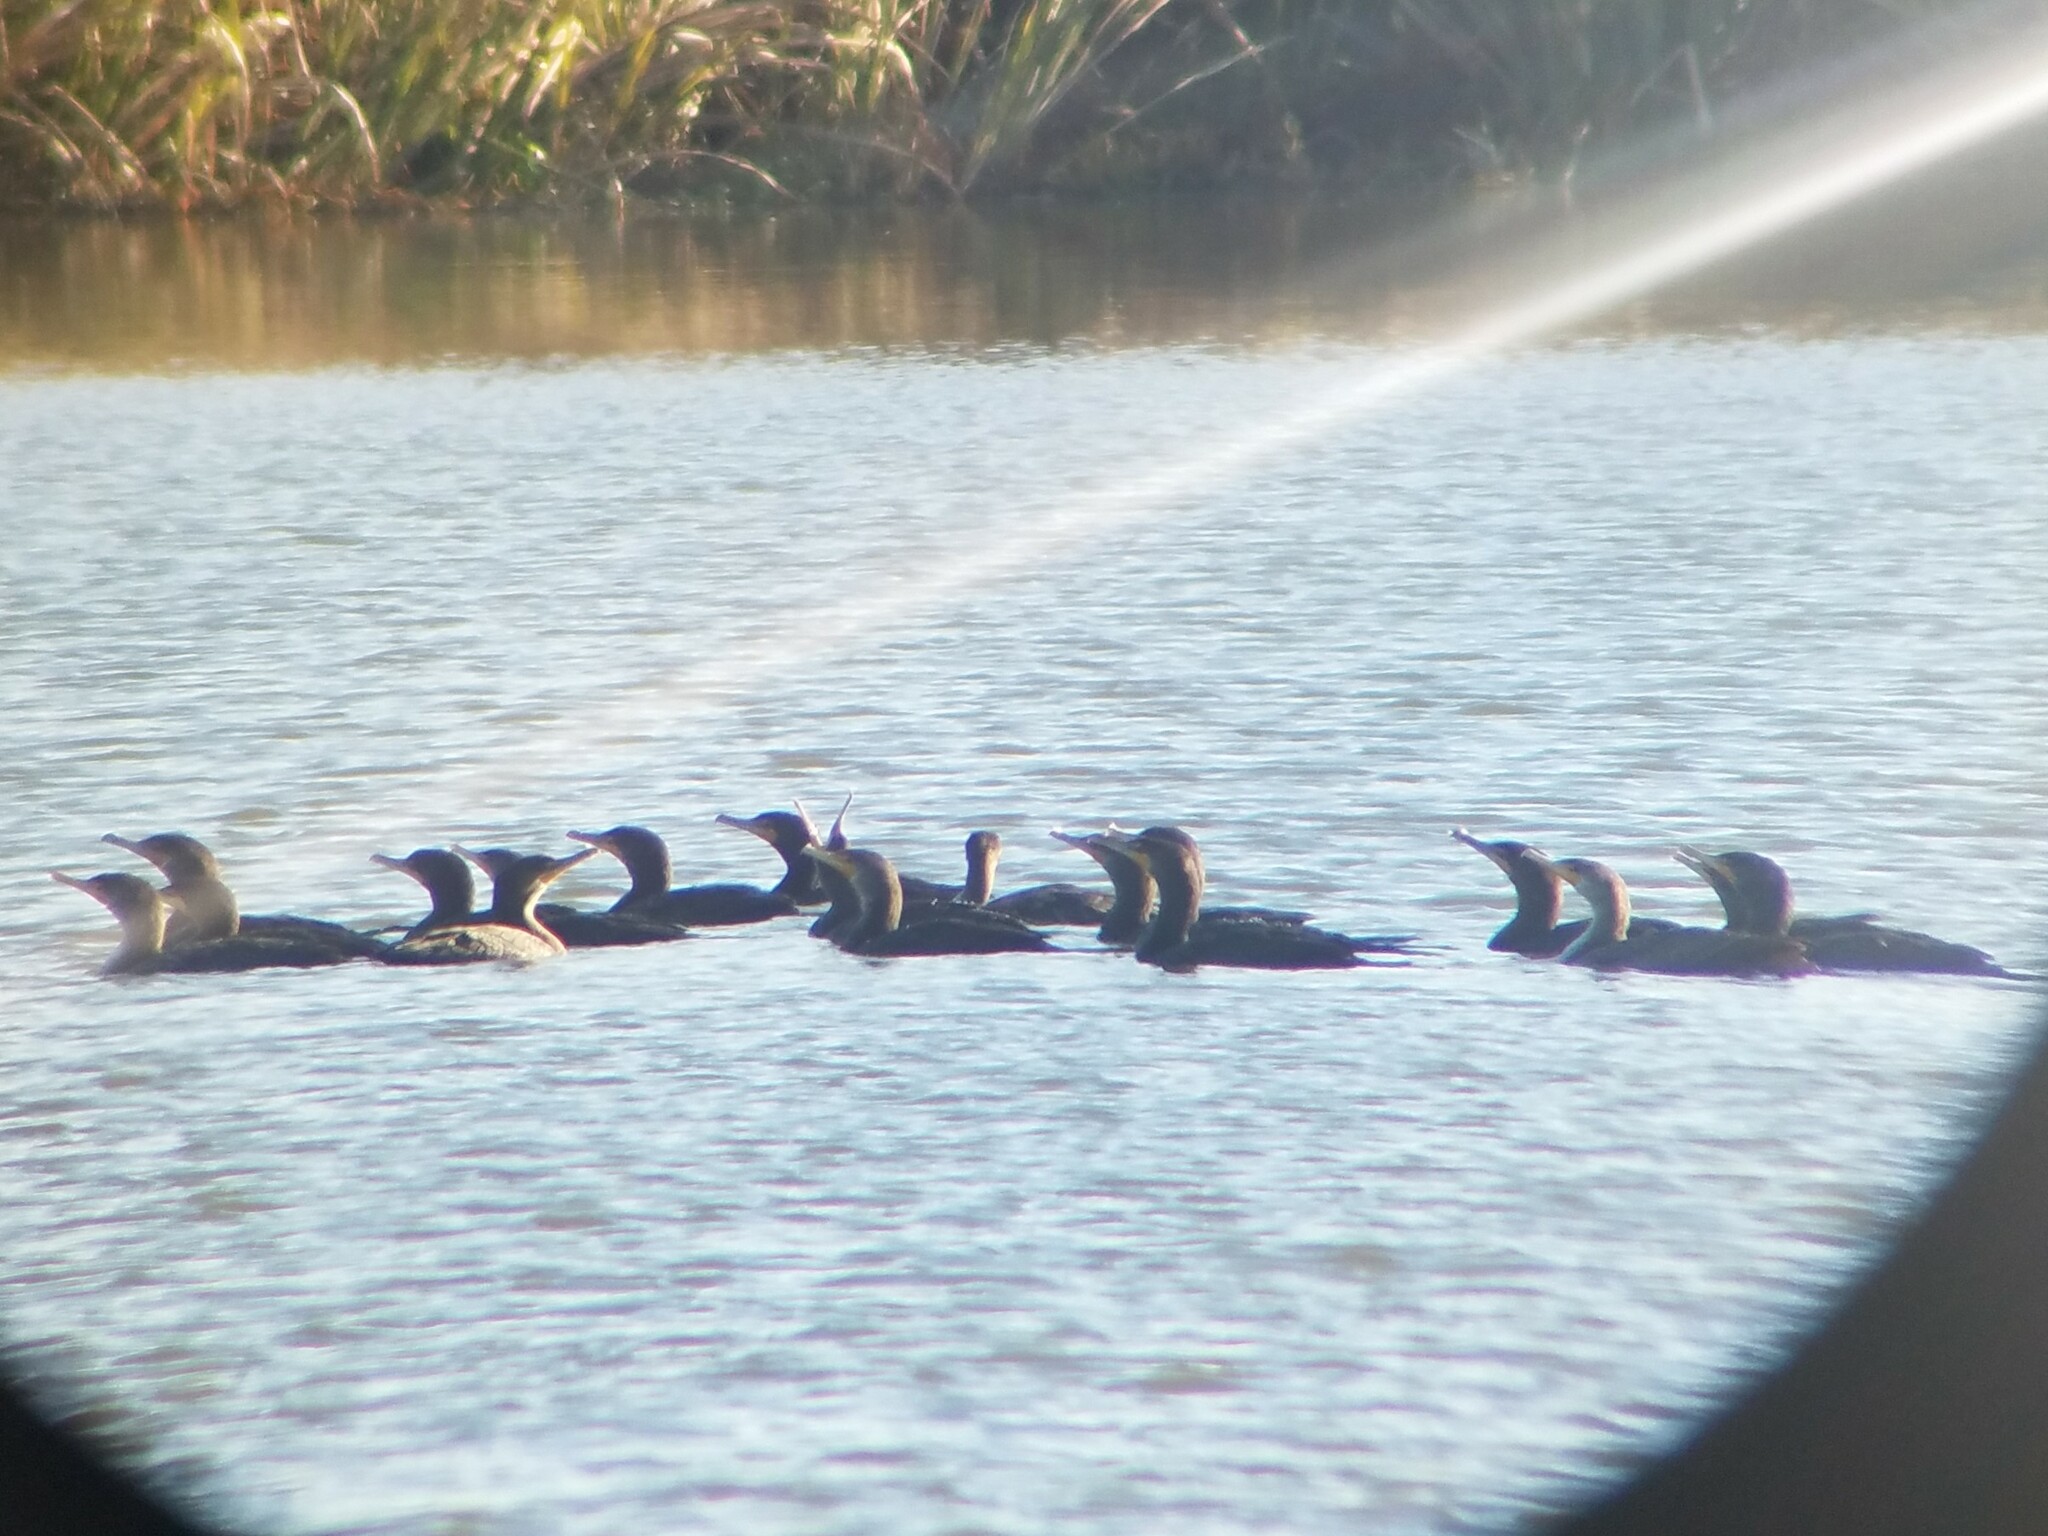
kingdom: Animalia
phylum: Chordata
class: Aves
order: Suliformes
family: Phalacrocoracidae
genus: Phalacrocorax
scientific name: Phalacrocorax auritus
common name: Double-crested cormorant
